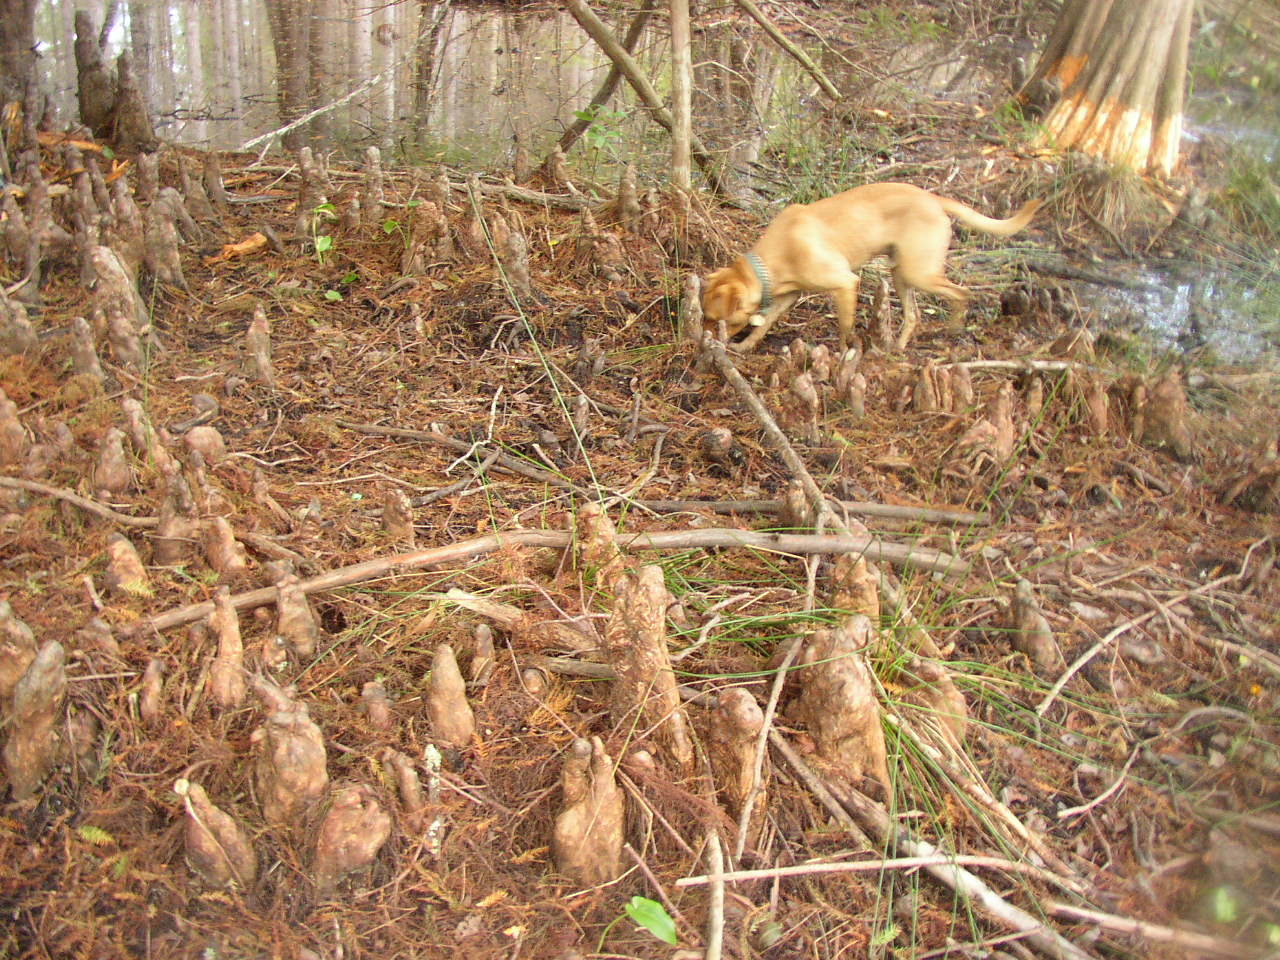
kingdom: Plantae
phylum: Tracheophyta
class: Pinopsida
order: Pinales
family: Cupressaceae
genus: Taxodium
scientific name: Taxodium distichum
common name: Bald cypress
